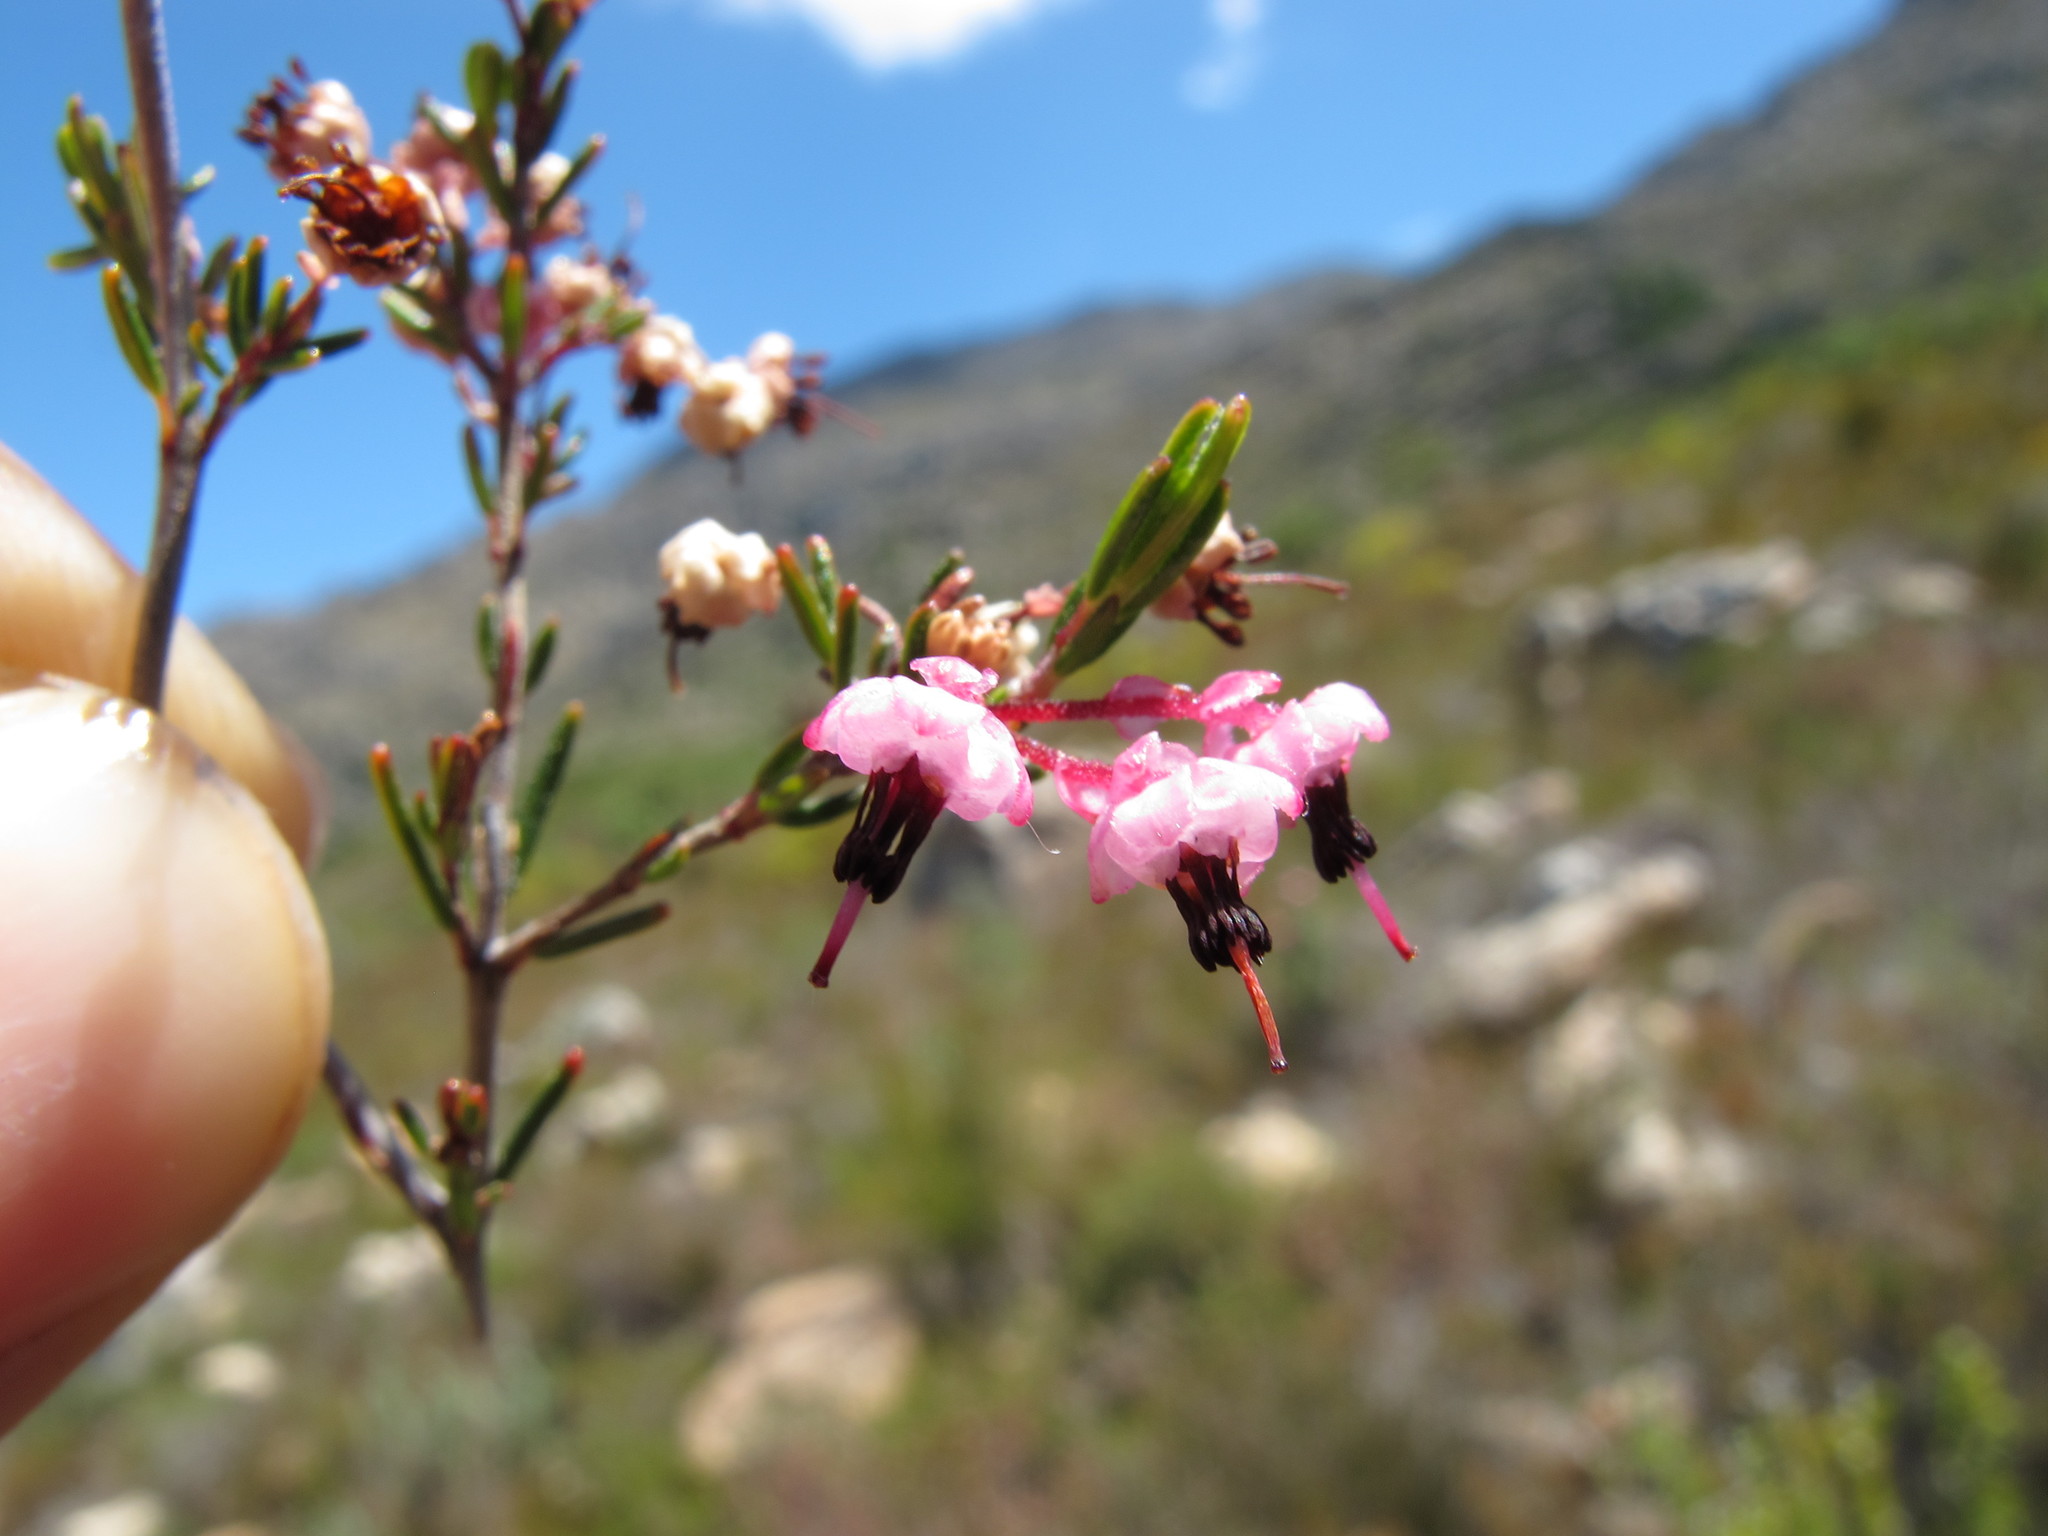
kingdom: Plantae
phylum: Tracheophyta
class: Magnoliopsida
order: Ericales
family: Ericaceae
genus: Erica
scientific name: Erica placentiflora
